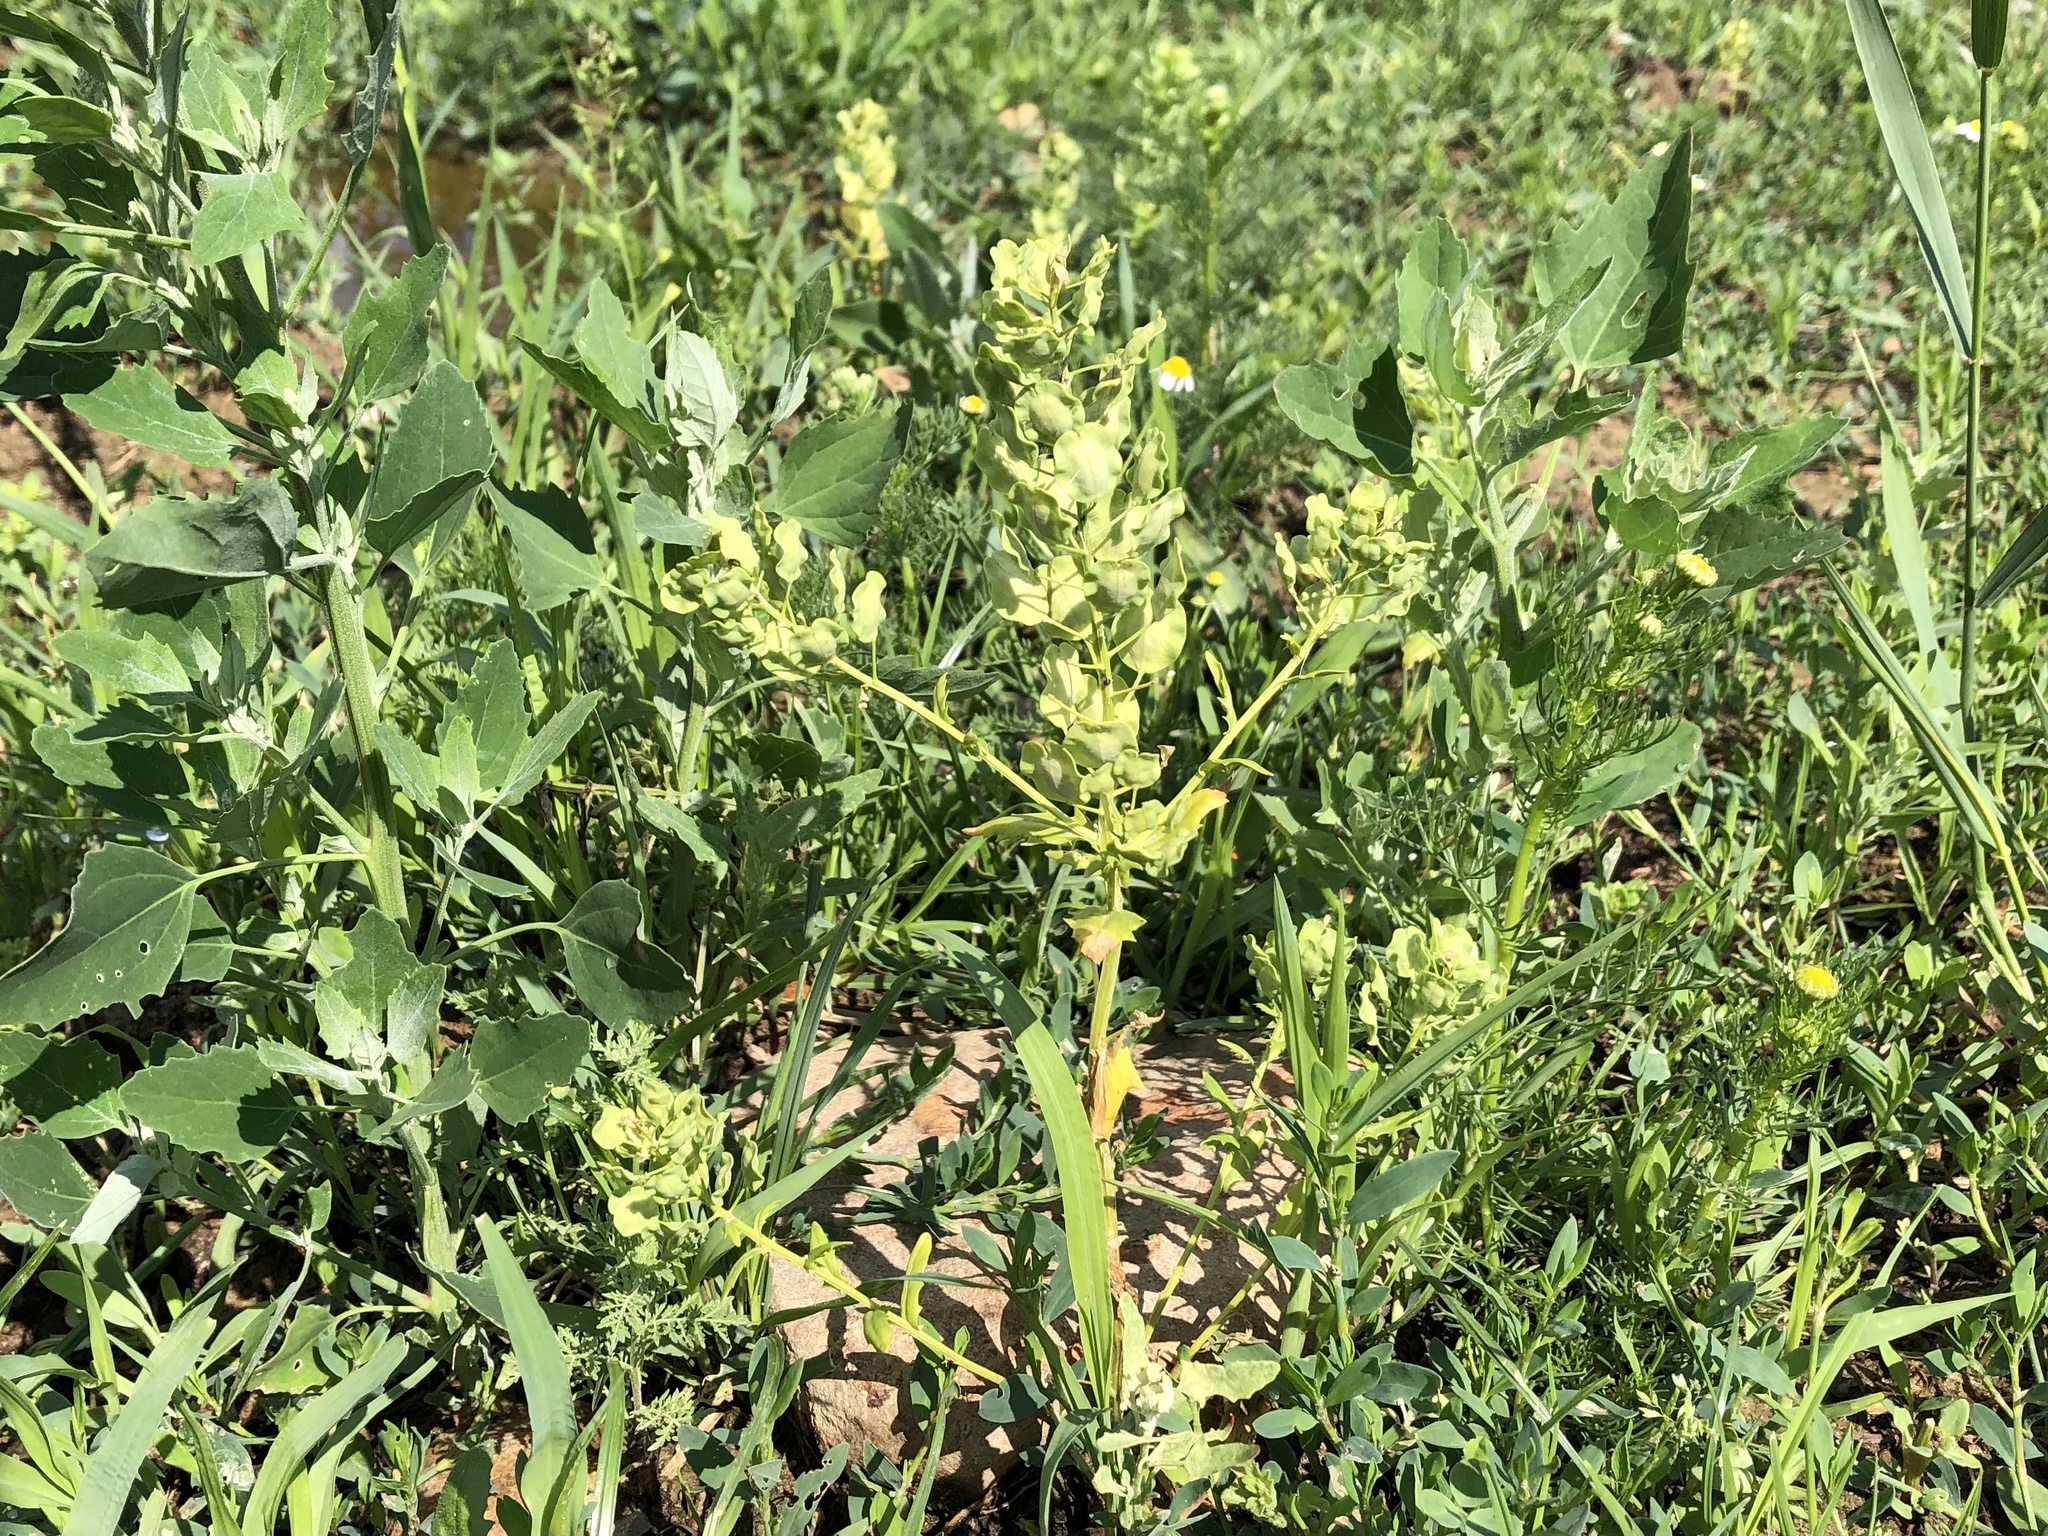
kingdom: Plantae
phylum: Tracheophyta
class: Magnoliopsida
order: Brassicales
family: Brassicaceae
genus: Thlaspi
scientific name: Thlaspi arvense
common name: Field pennycress
